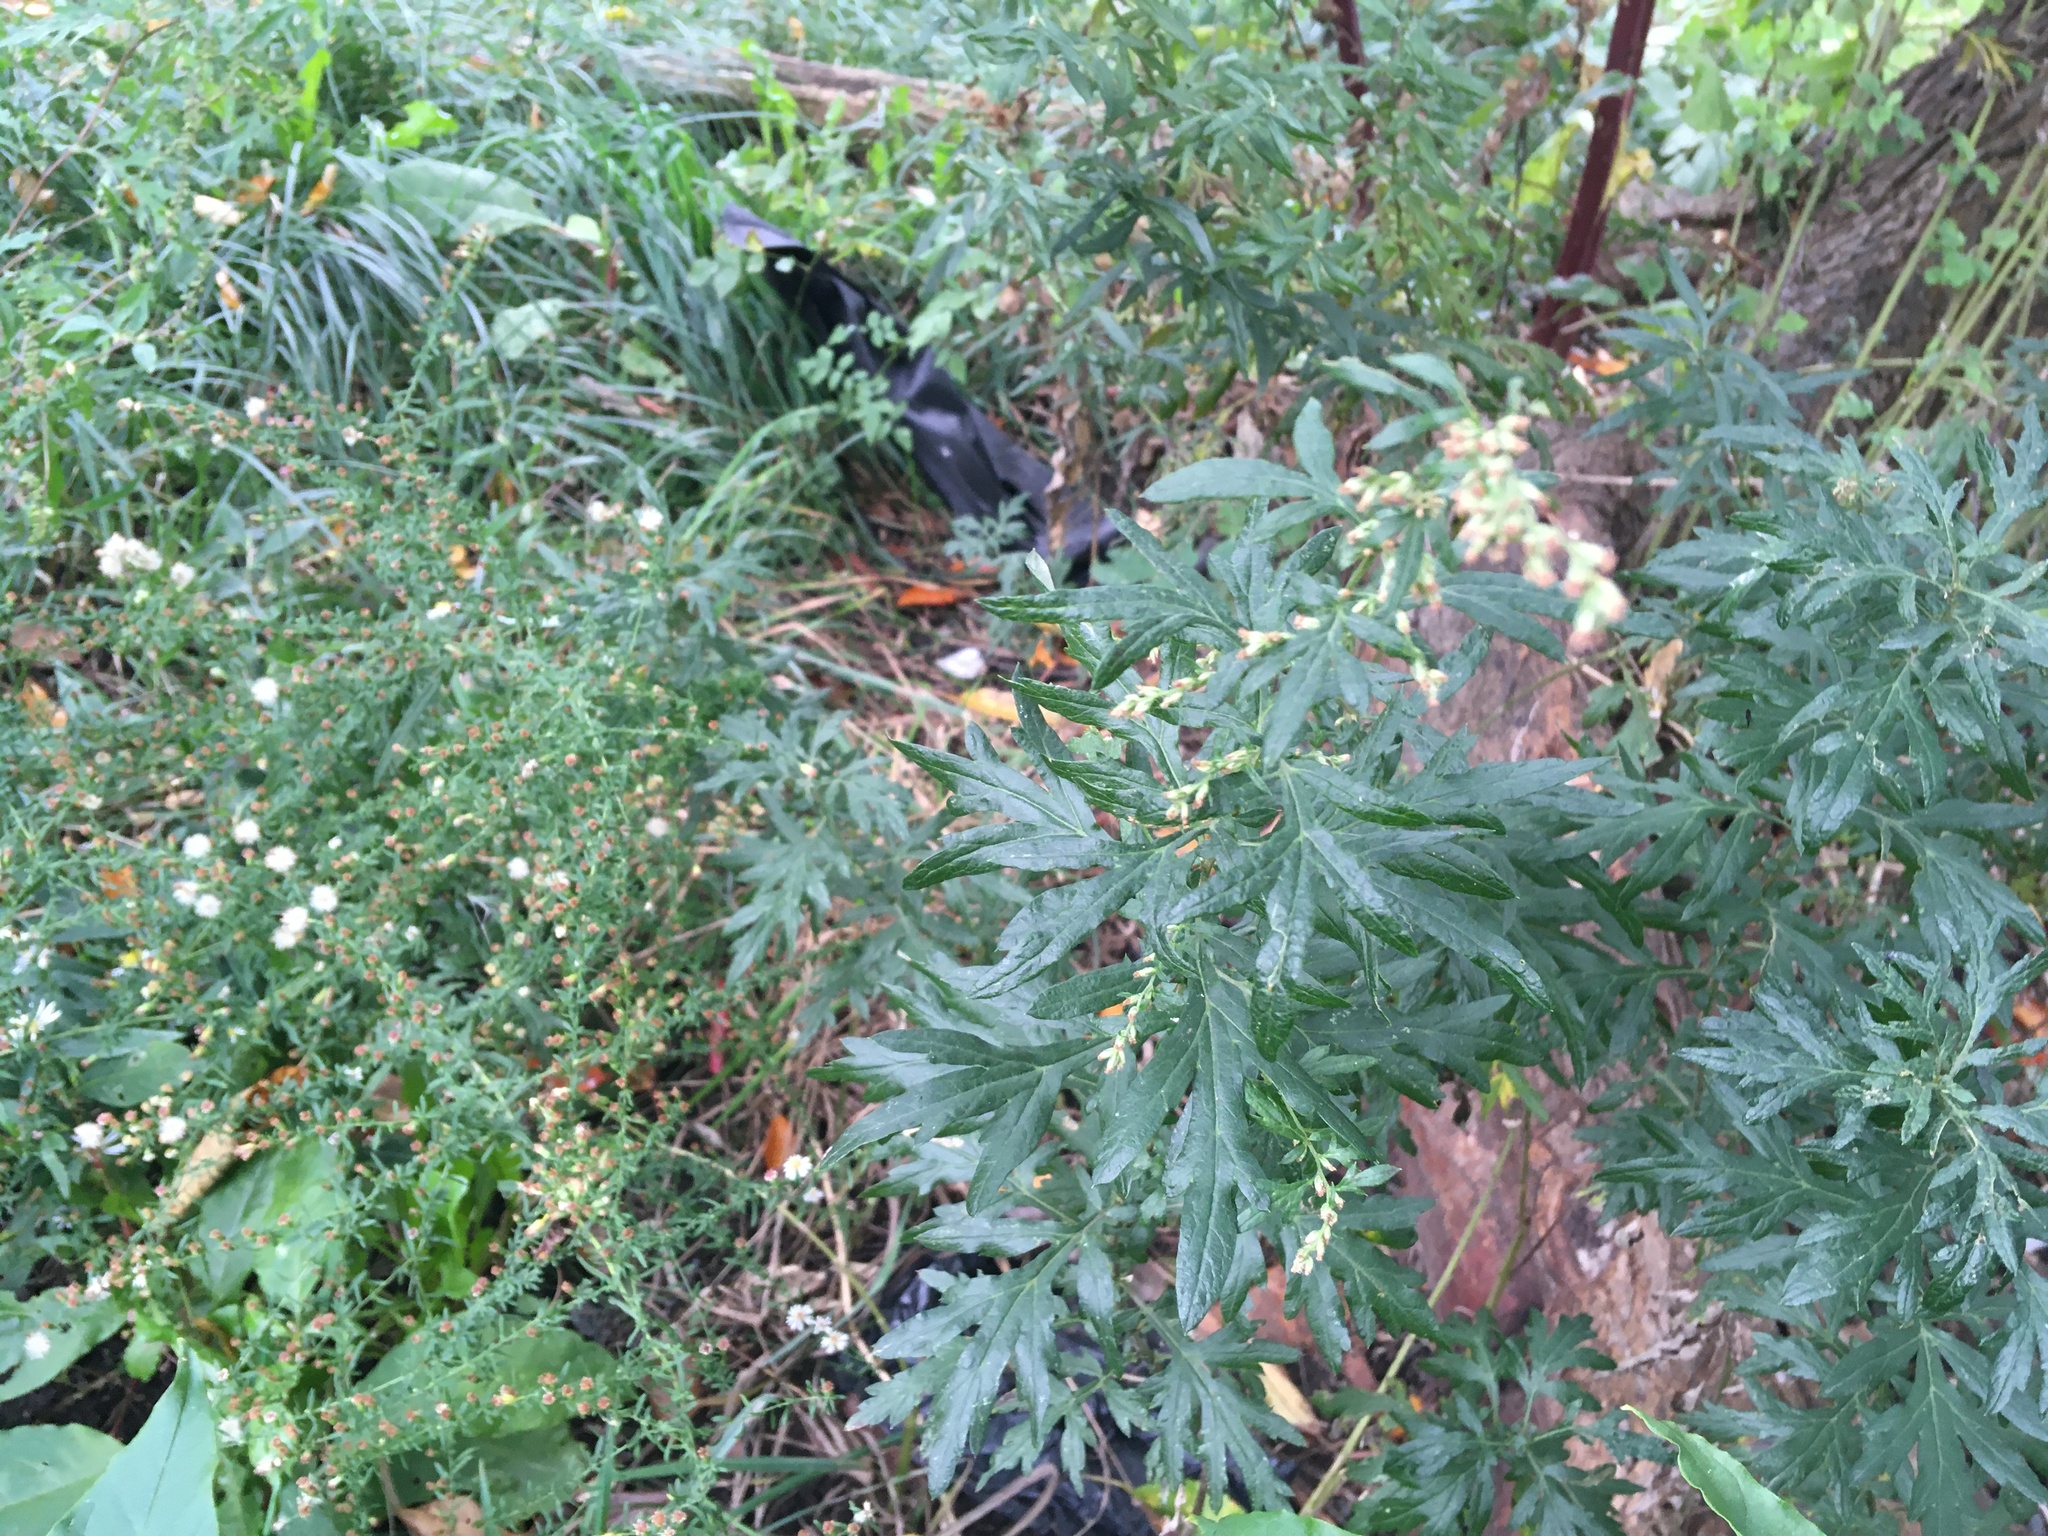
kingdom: Plantae
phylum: Tracheophyta
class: Magnoliopsida
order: Asterales
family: Asteraceae
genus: Artemisia
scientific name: Artemisia vulgaris
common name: Mugwort
